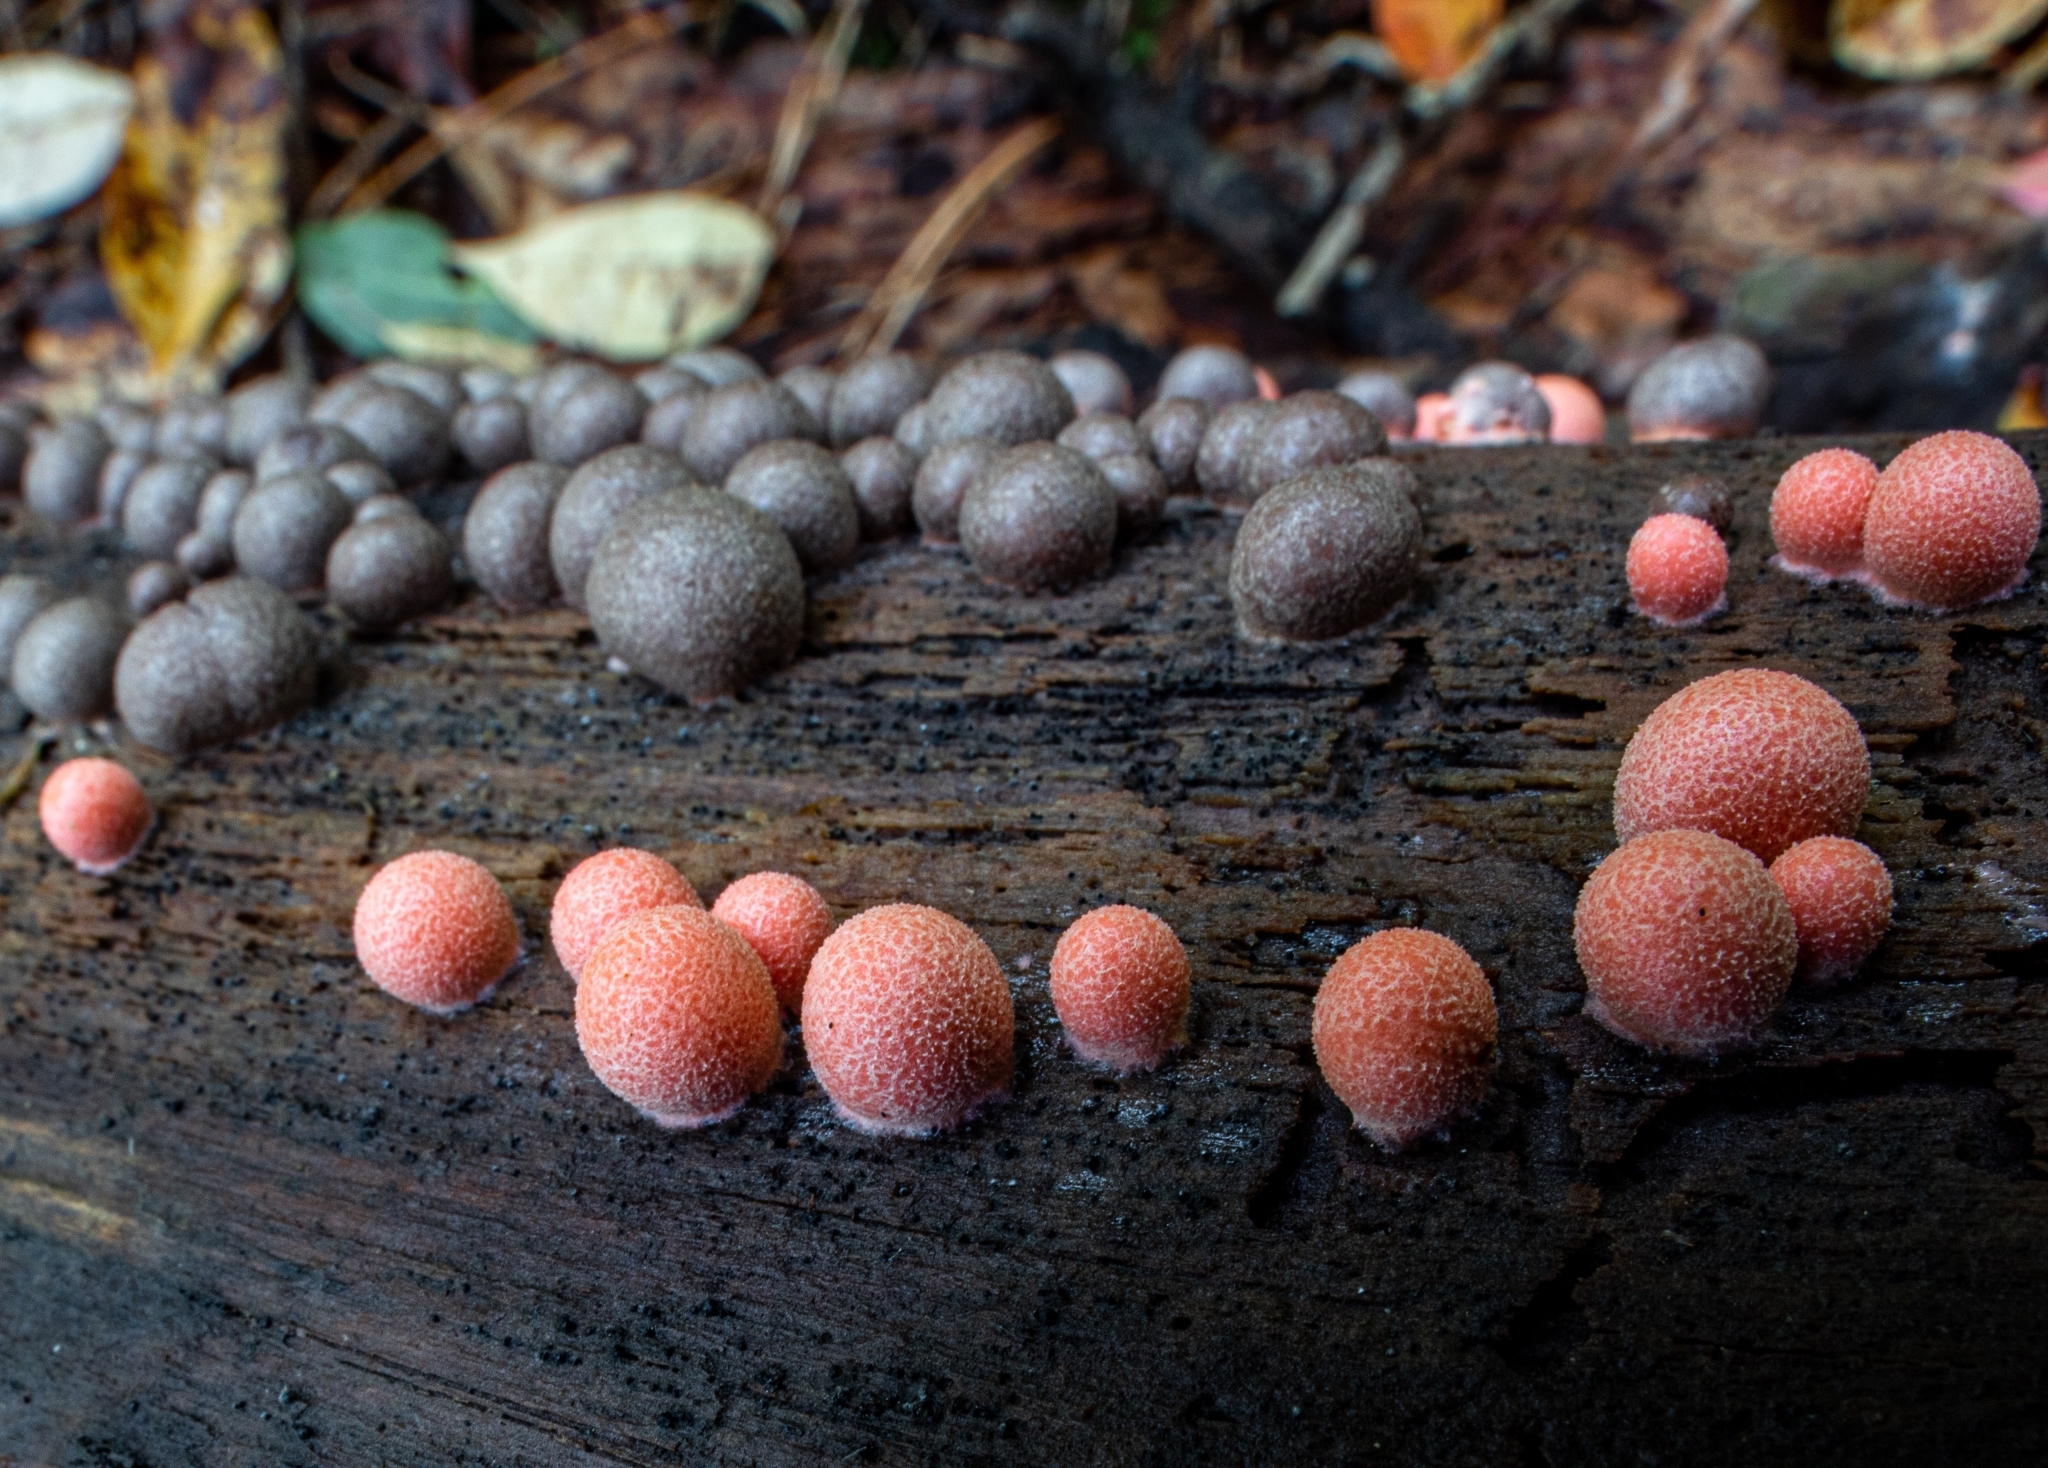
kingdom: Protozoa
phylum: Mycetozoa
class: Myxomycetes
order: Cribrariales
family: Tubiferaceae
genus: Lycogala
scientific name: Lycogala epidendrum
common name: Wolf's milk
